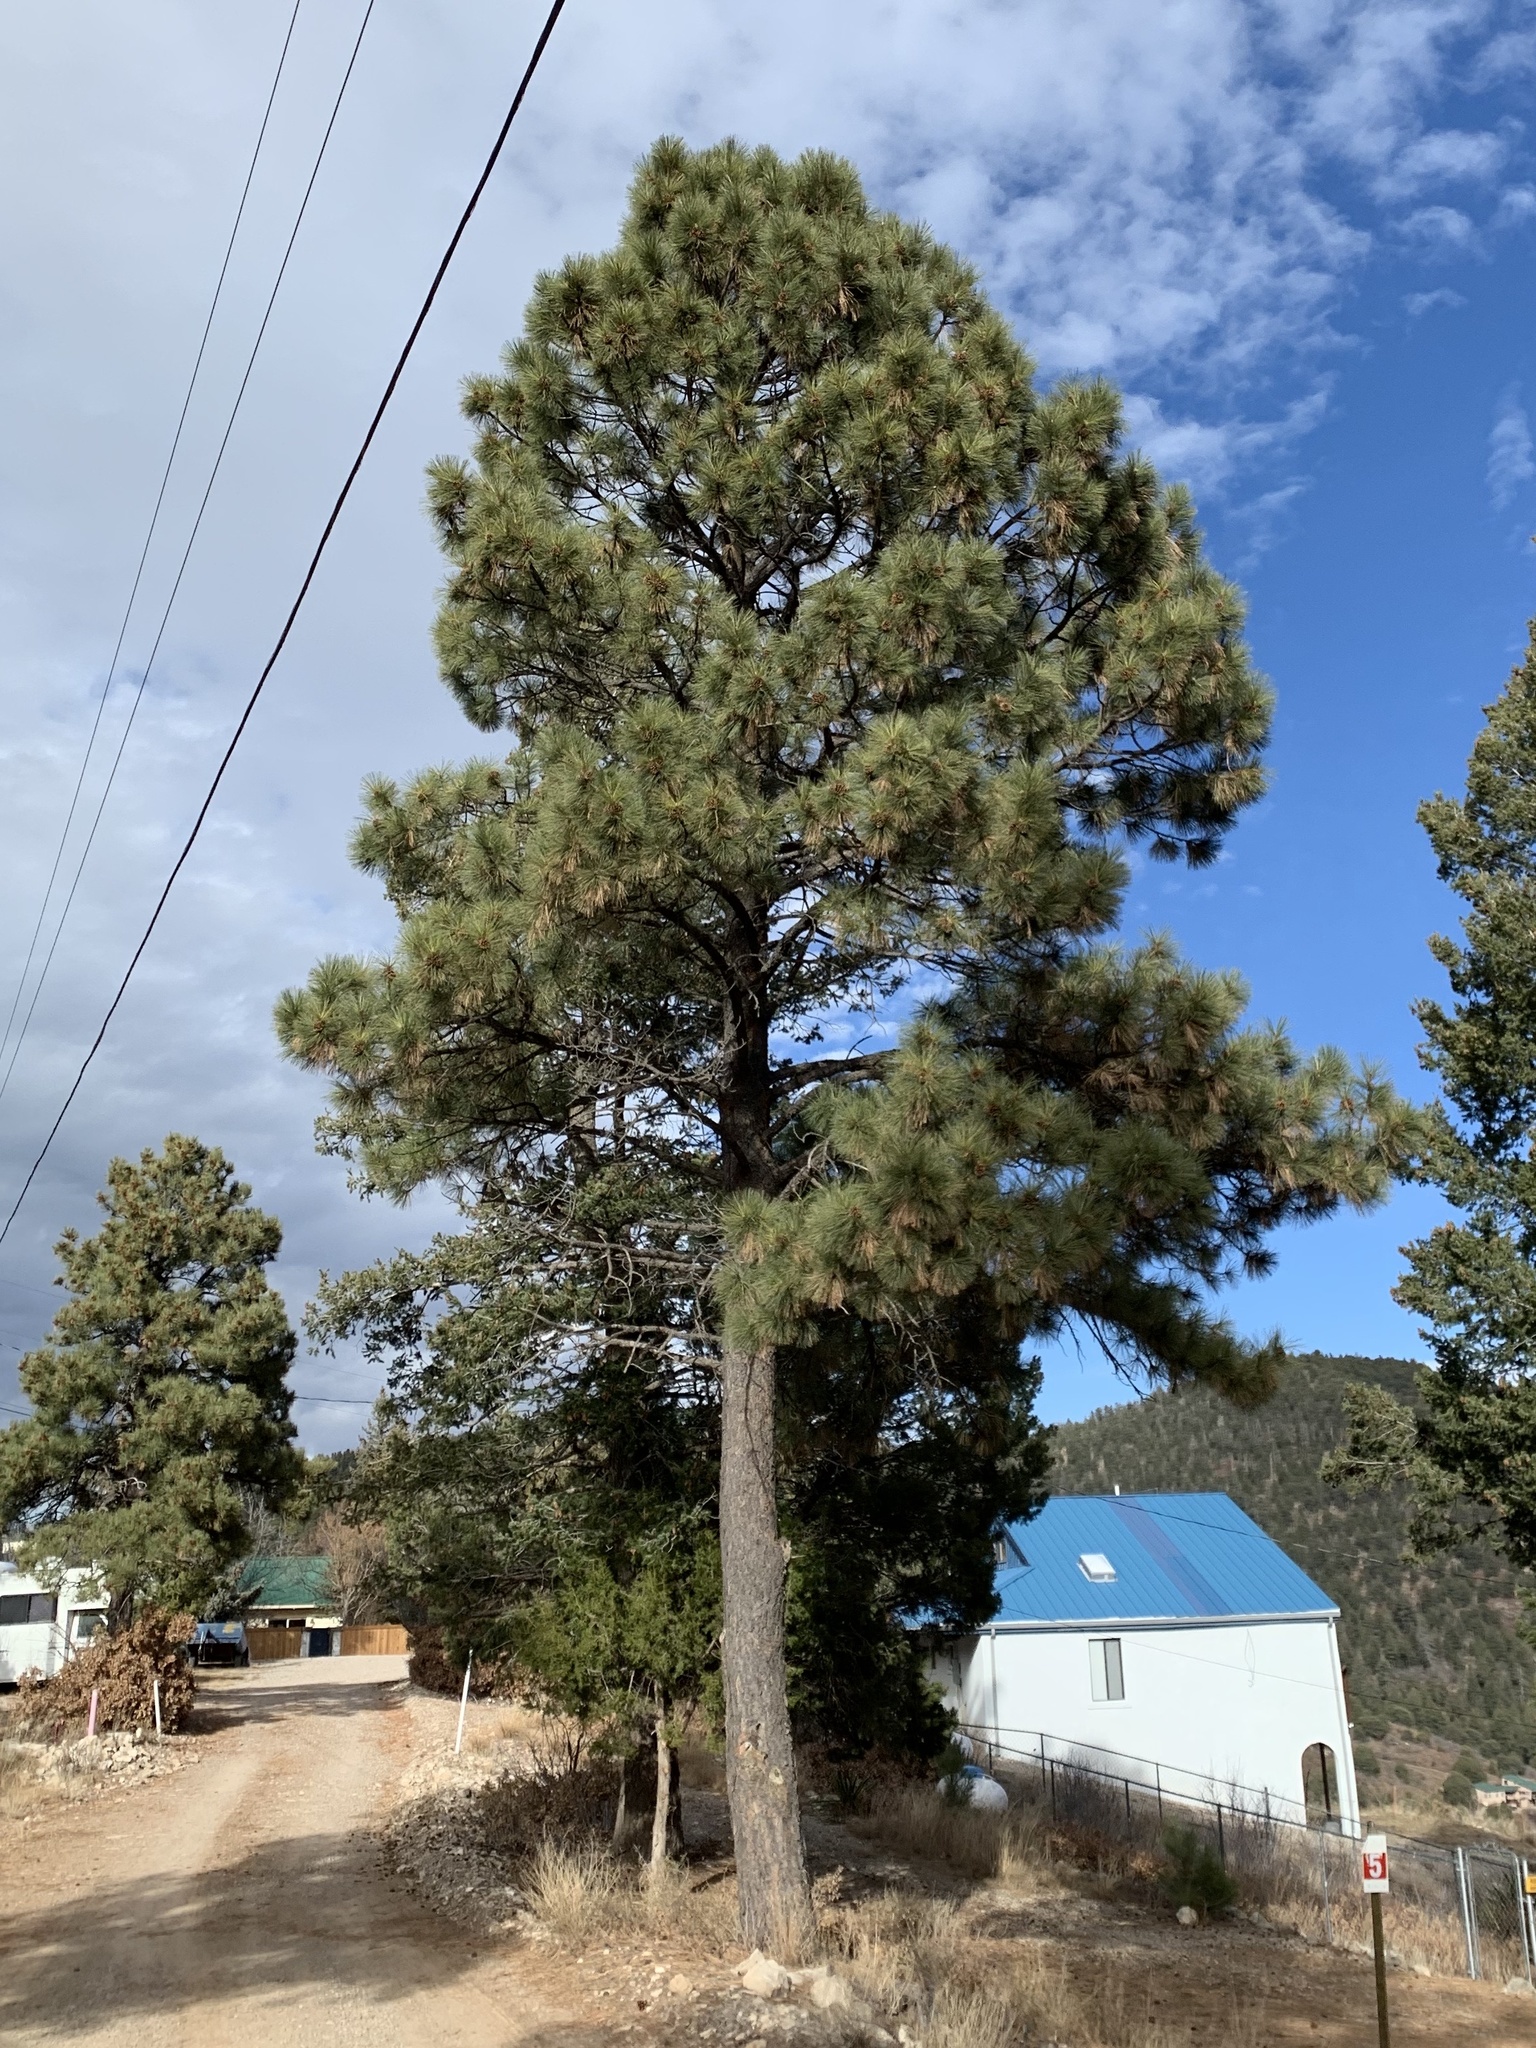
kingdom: Plantae
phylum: Tracheophyta
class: Pinopsida
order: Pinales
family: Pinaceae
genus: Pinus
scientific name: Pinus ponderosa
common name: Western yellow-pine
